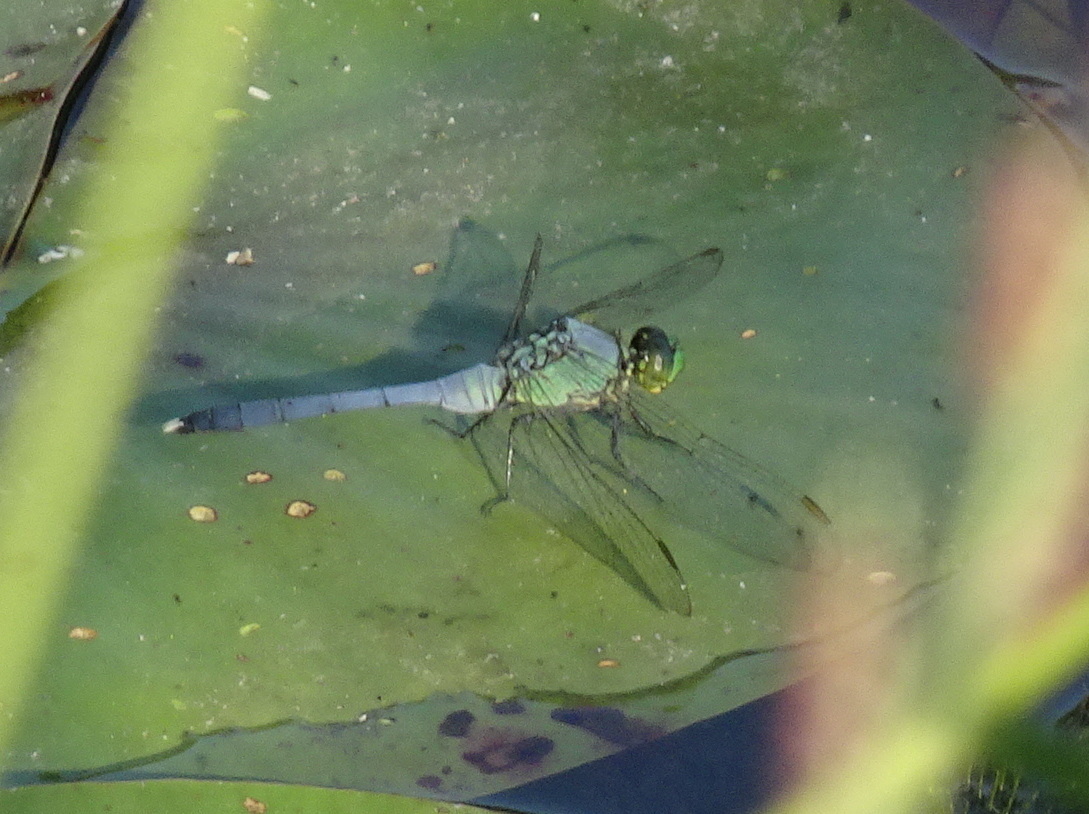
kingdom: Animalia
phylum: Arthropoda
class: Insecta
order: Odonata
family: Libellulidae
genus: Erythemis
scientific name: Erythemis simplicicollis
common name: Eastern pondhawk
